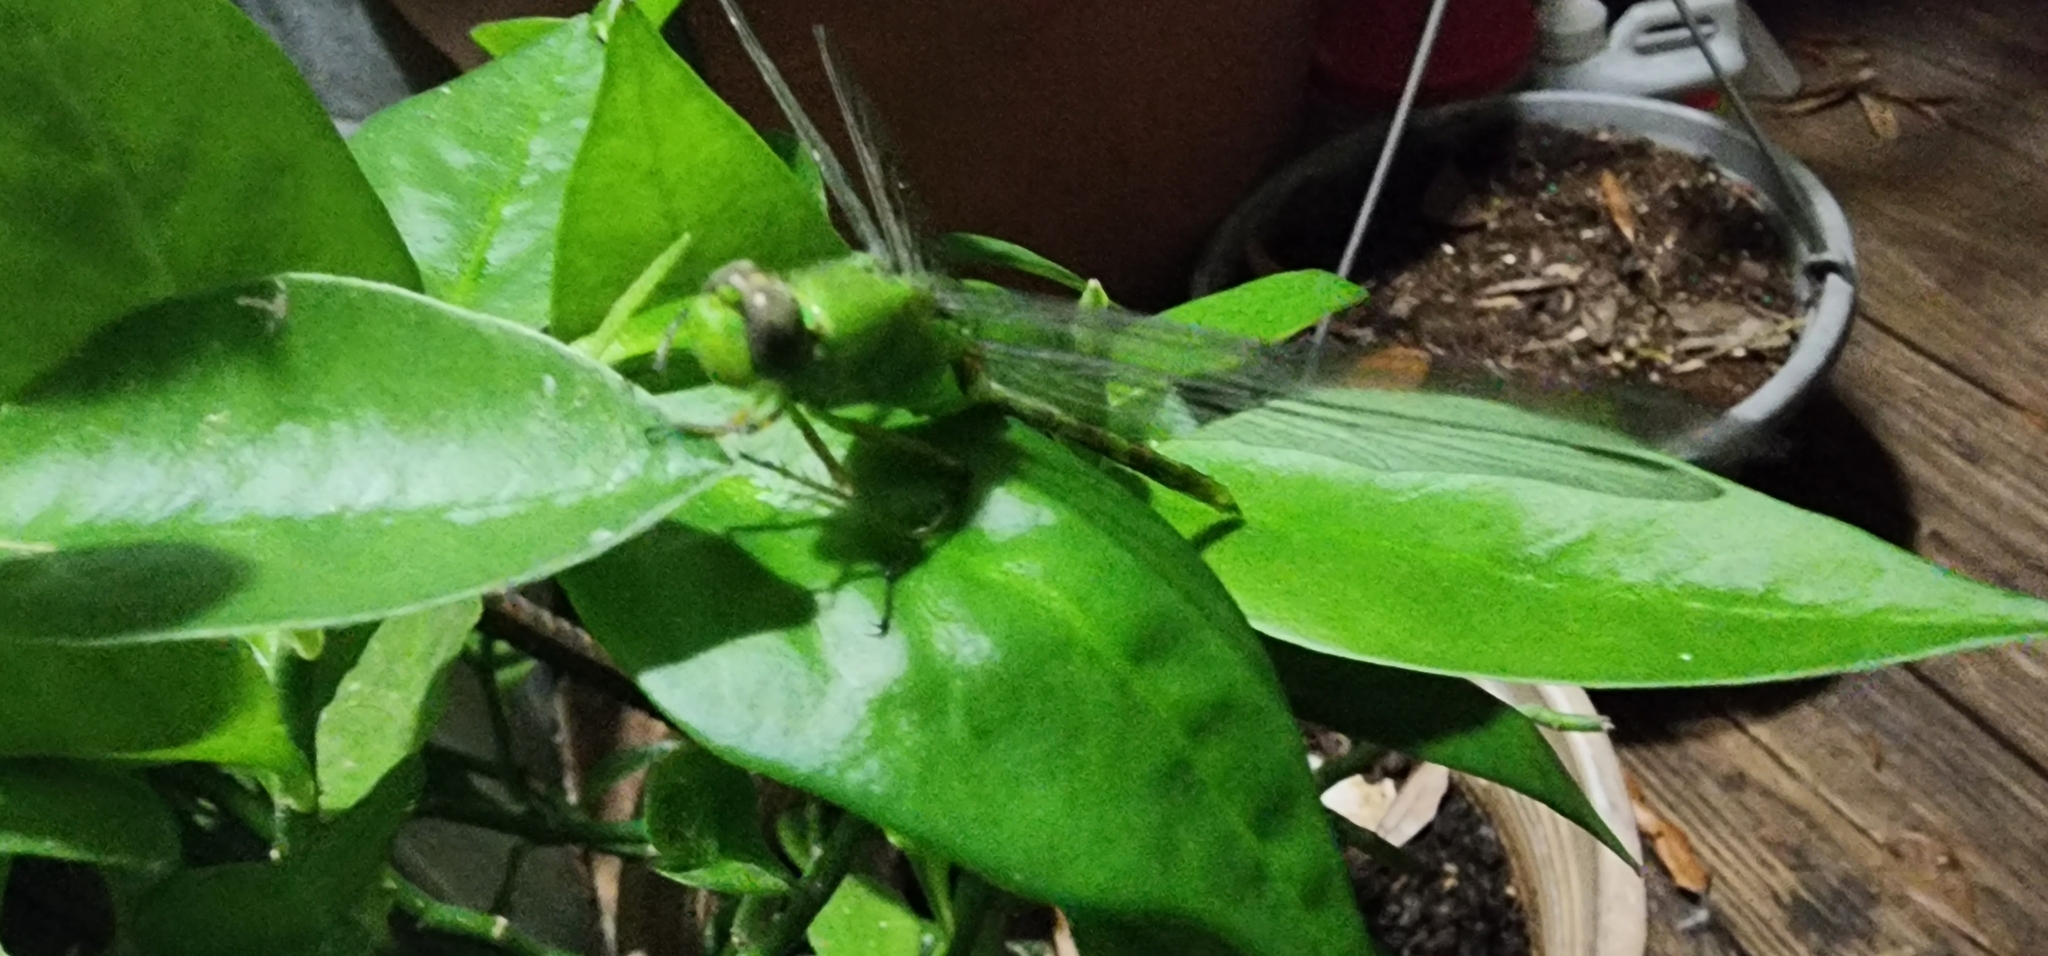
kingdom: Animalia
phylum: Arthropoda
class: Insecta
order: Odonata
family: Libellulidae
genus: Erythemis
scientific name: Erythemis vesiculosa
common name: Great pondhawk
